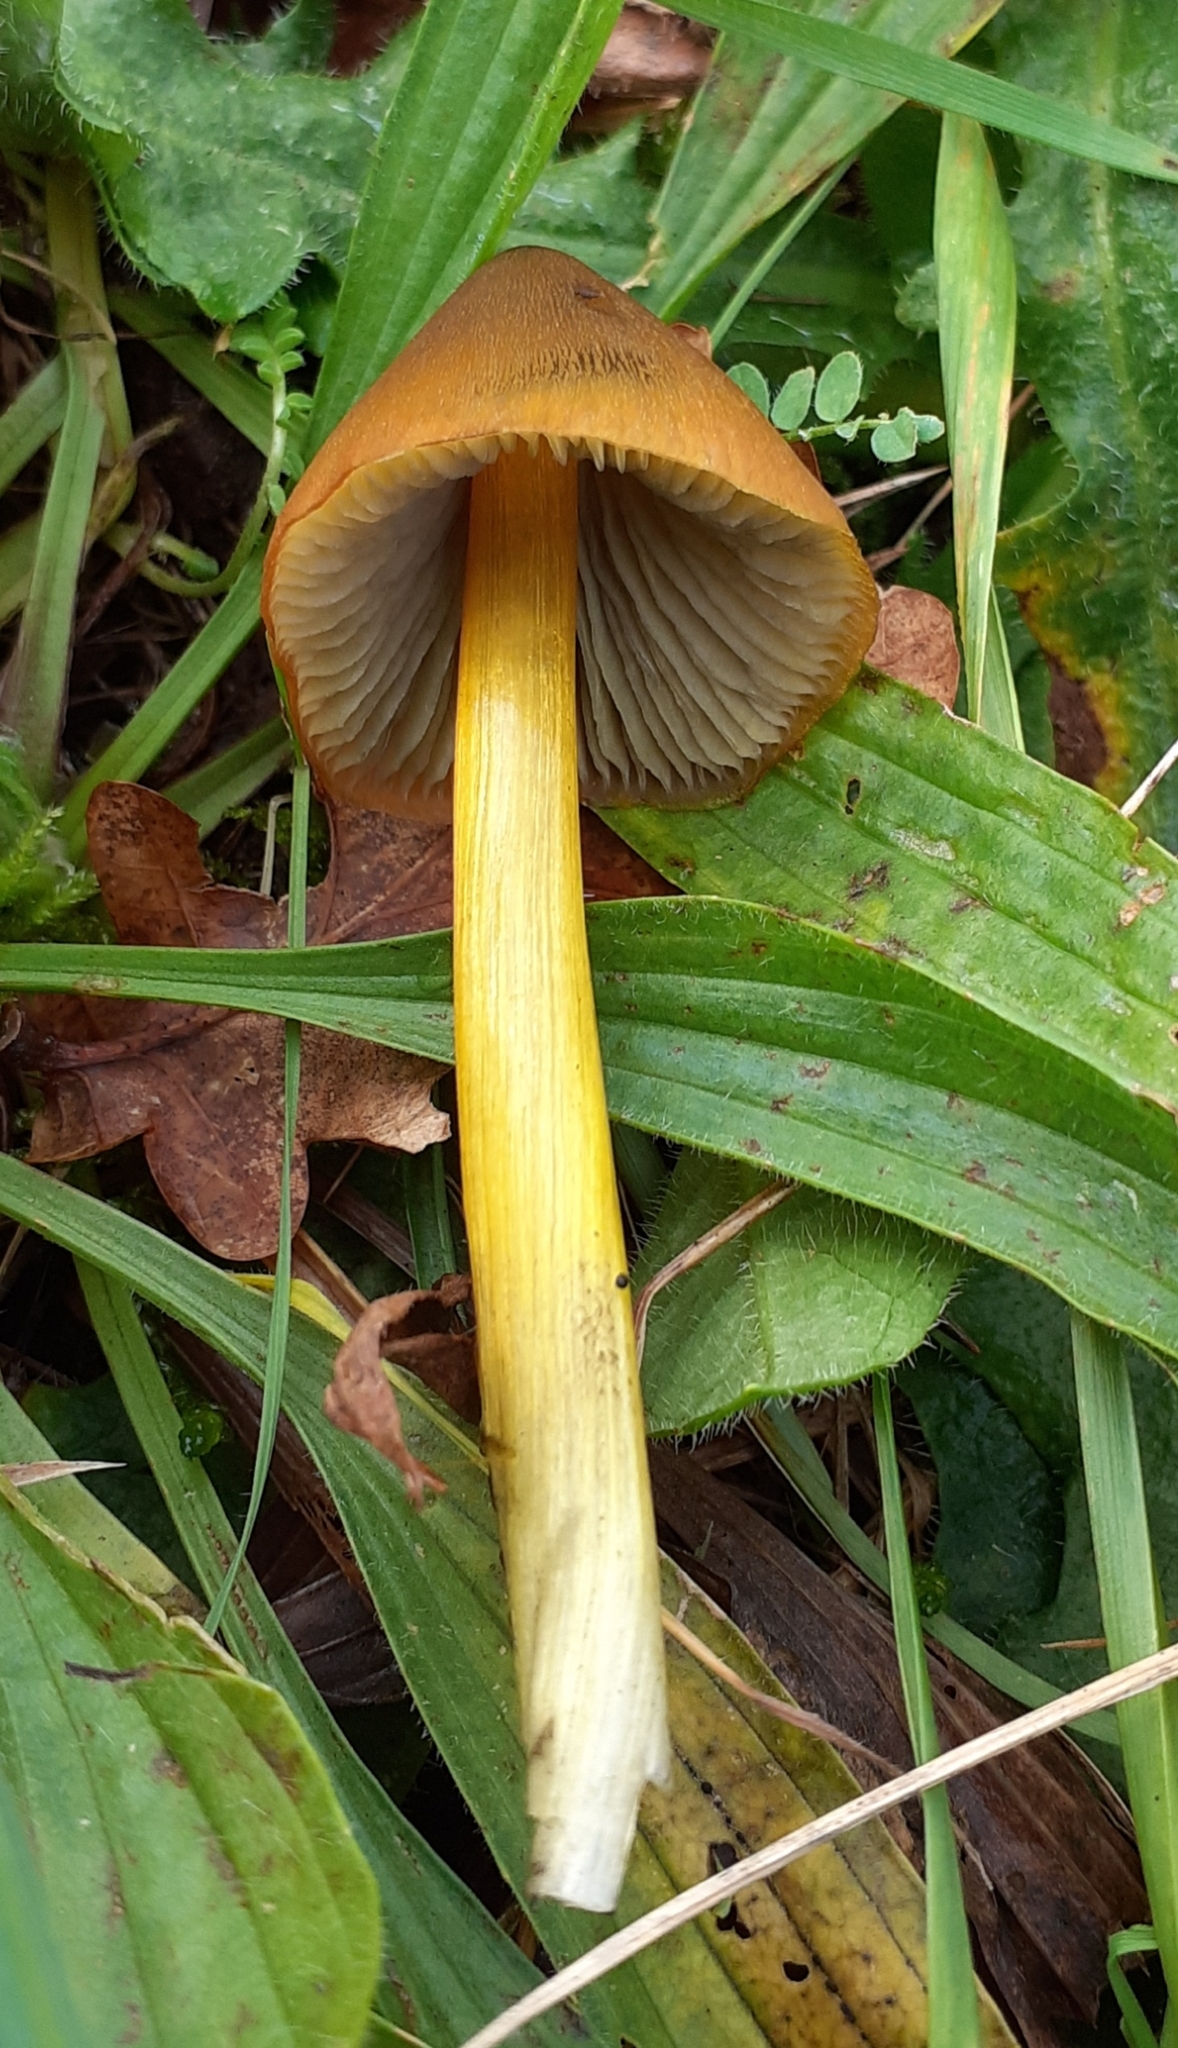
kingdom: Fungi
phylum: Basidiomycota
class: Agaricomycetes
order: Agaricales
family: Hygrophoraceae
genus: Hygrocybe
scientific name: Hygrocybe conica
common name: Blackening wax-cap
